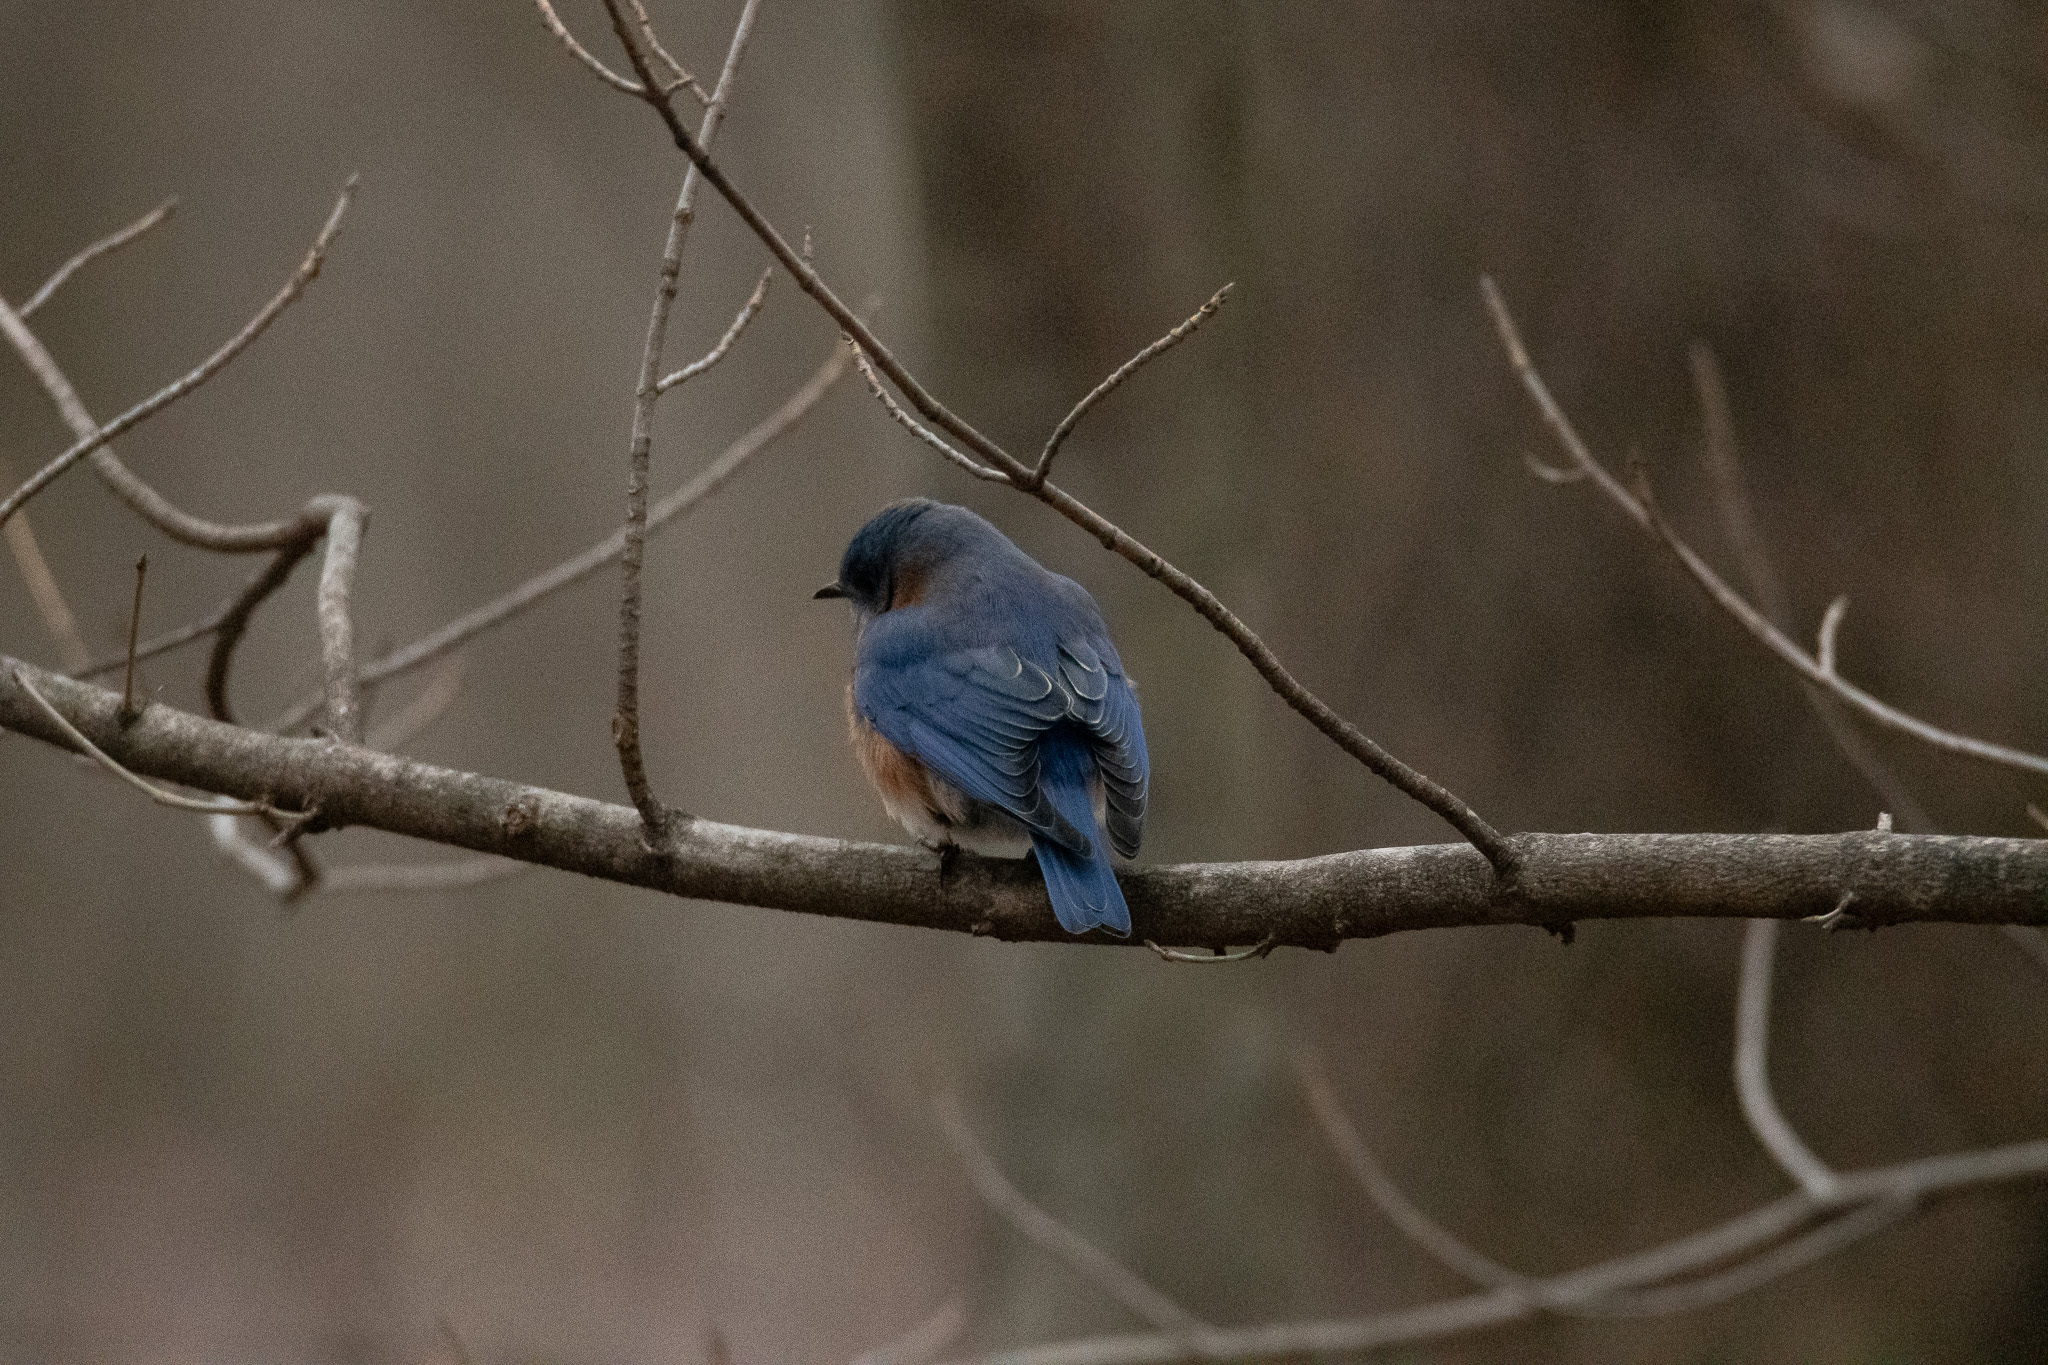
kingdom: Animalia
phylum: Chordata
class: Aves
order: Passeriformes
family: Turdidae
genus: Sialia
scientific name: Sialia sialis
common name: Eastern bluebird
